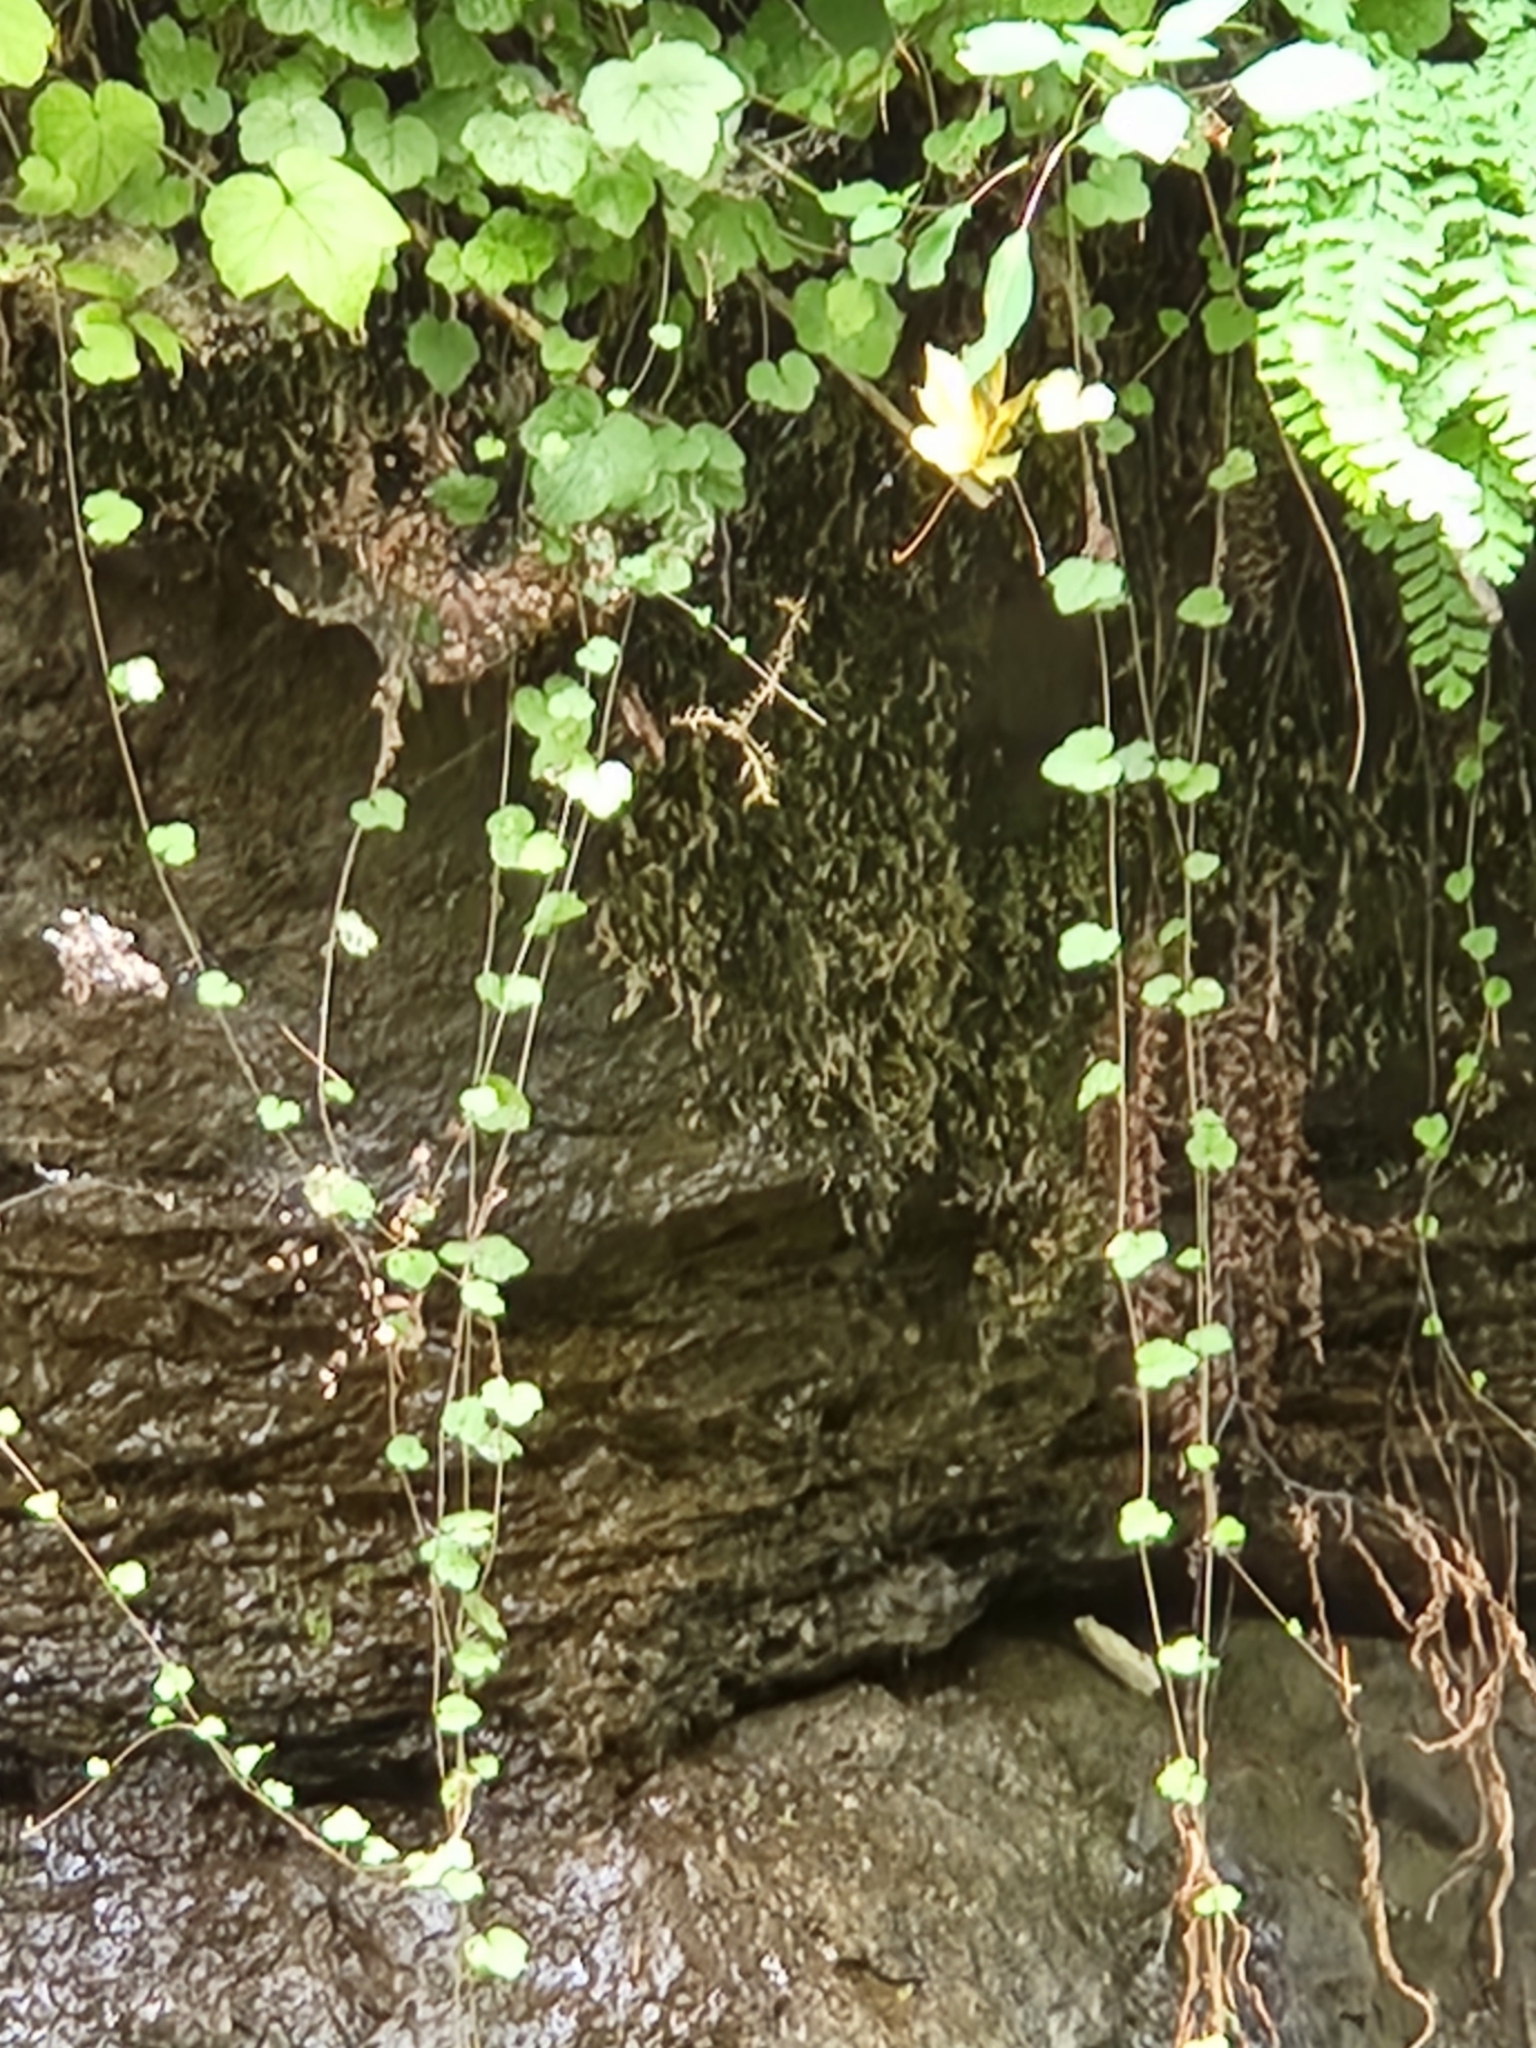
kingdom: Plantae
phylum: Tracheophyta
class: Magnoliopsida
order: Saxifragales
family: Saxifragaceae
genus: Mitellastra
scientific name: Mitellastra caulescens
